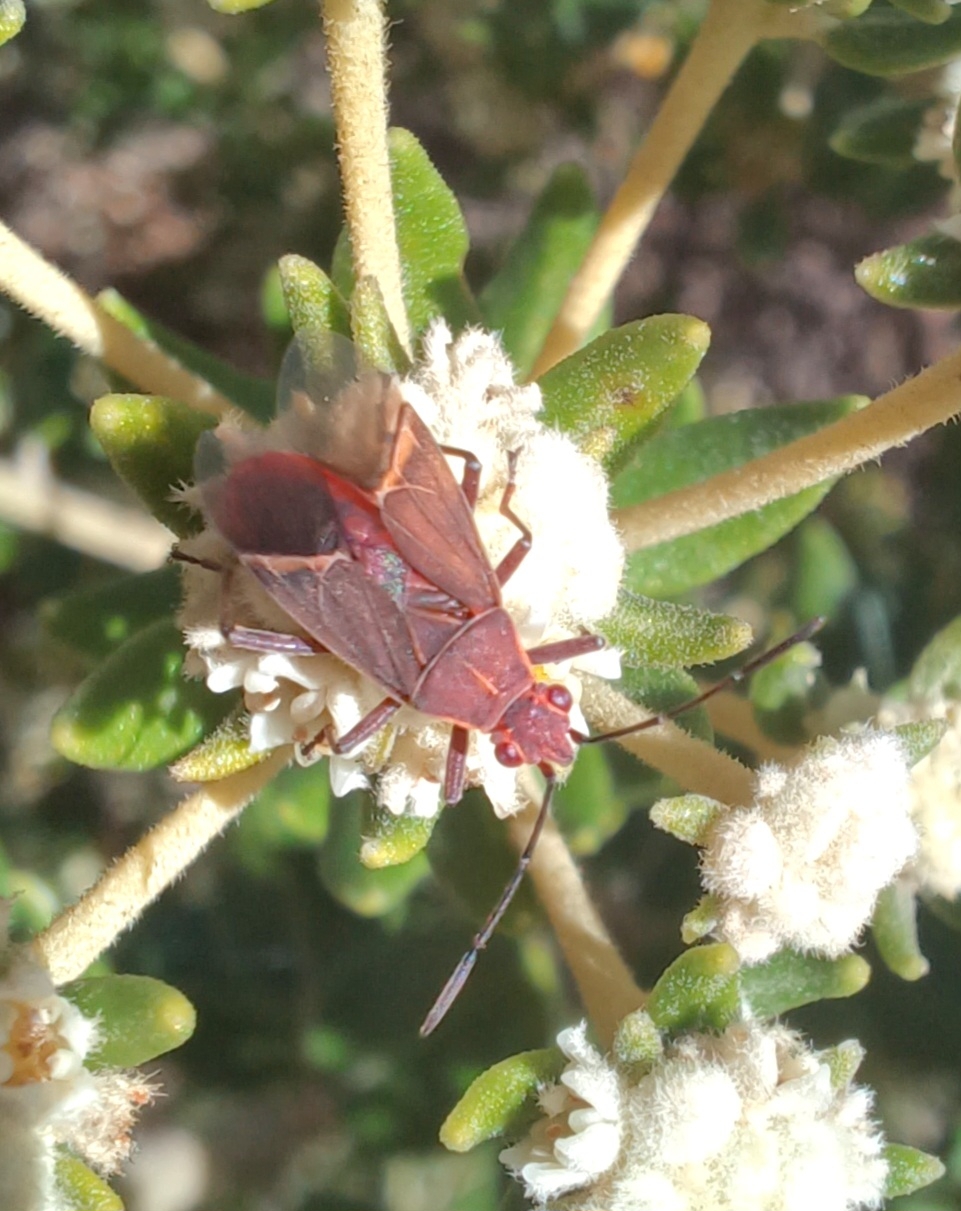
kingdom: Animalia
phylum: Arthropoda
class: Insecta
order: Hemiptera
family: Rhopalidae
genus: Boisea
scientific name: Boisea fulcrata
